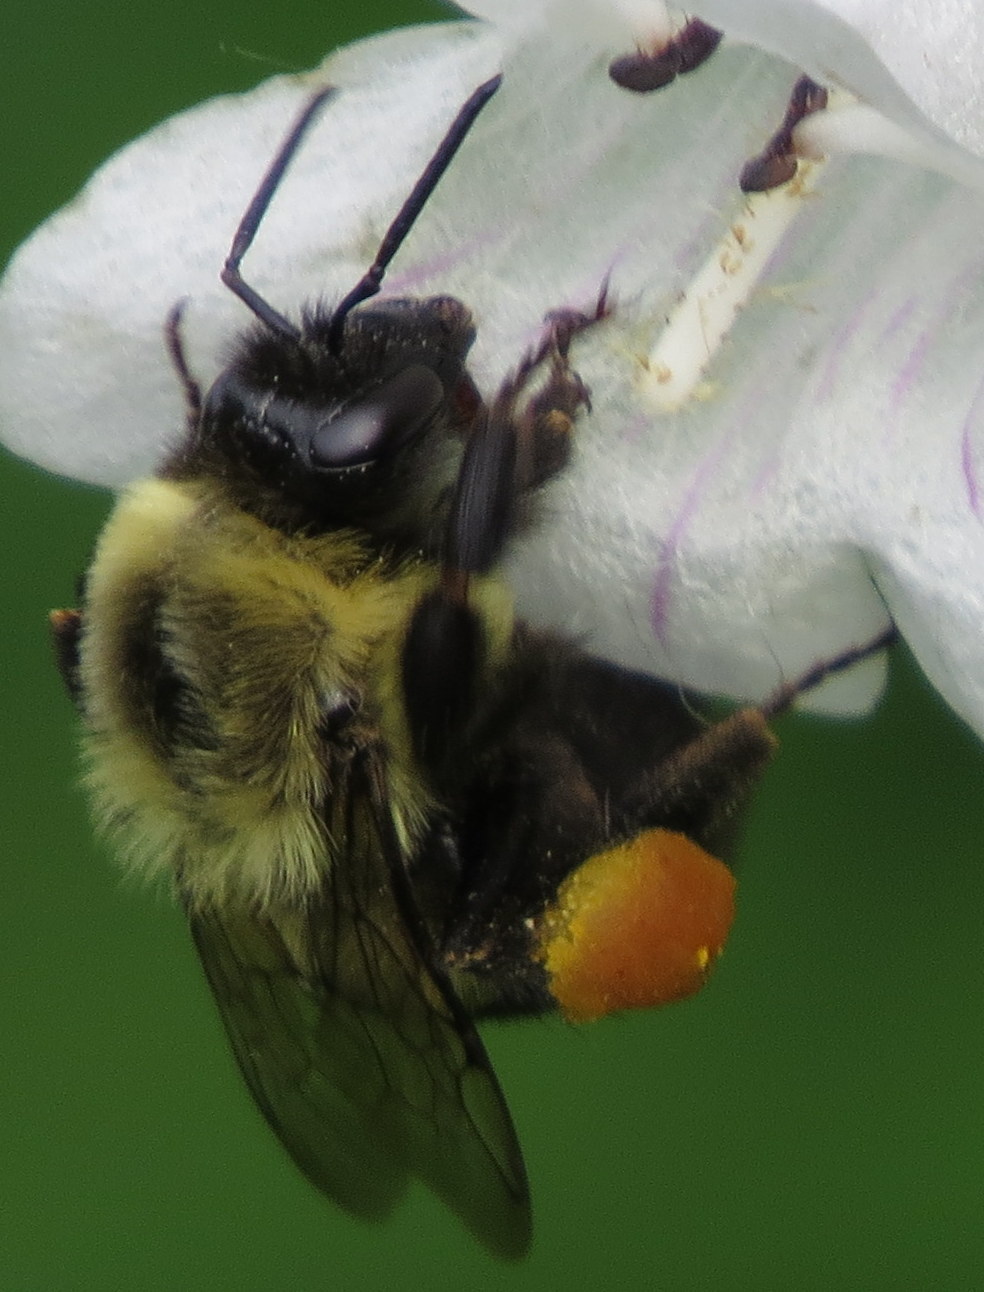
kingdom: Animalia
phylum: Arthropoda
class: Insecta
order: Hymenoptera
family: Apidae
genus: Bombus
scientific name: Bombus impatiens
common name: Common eastern bumble bee
